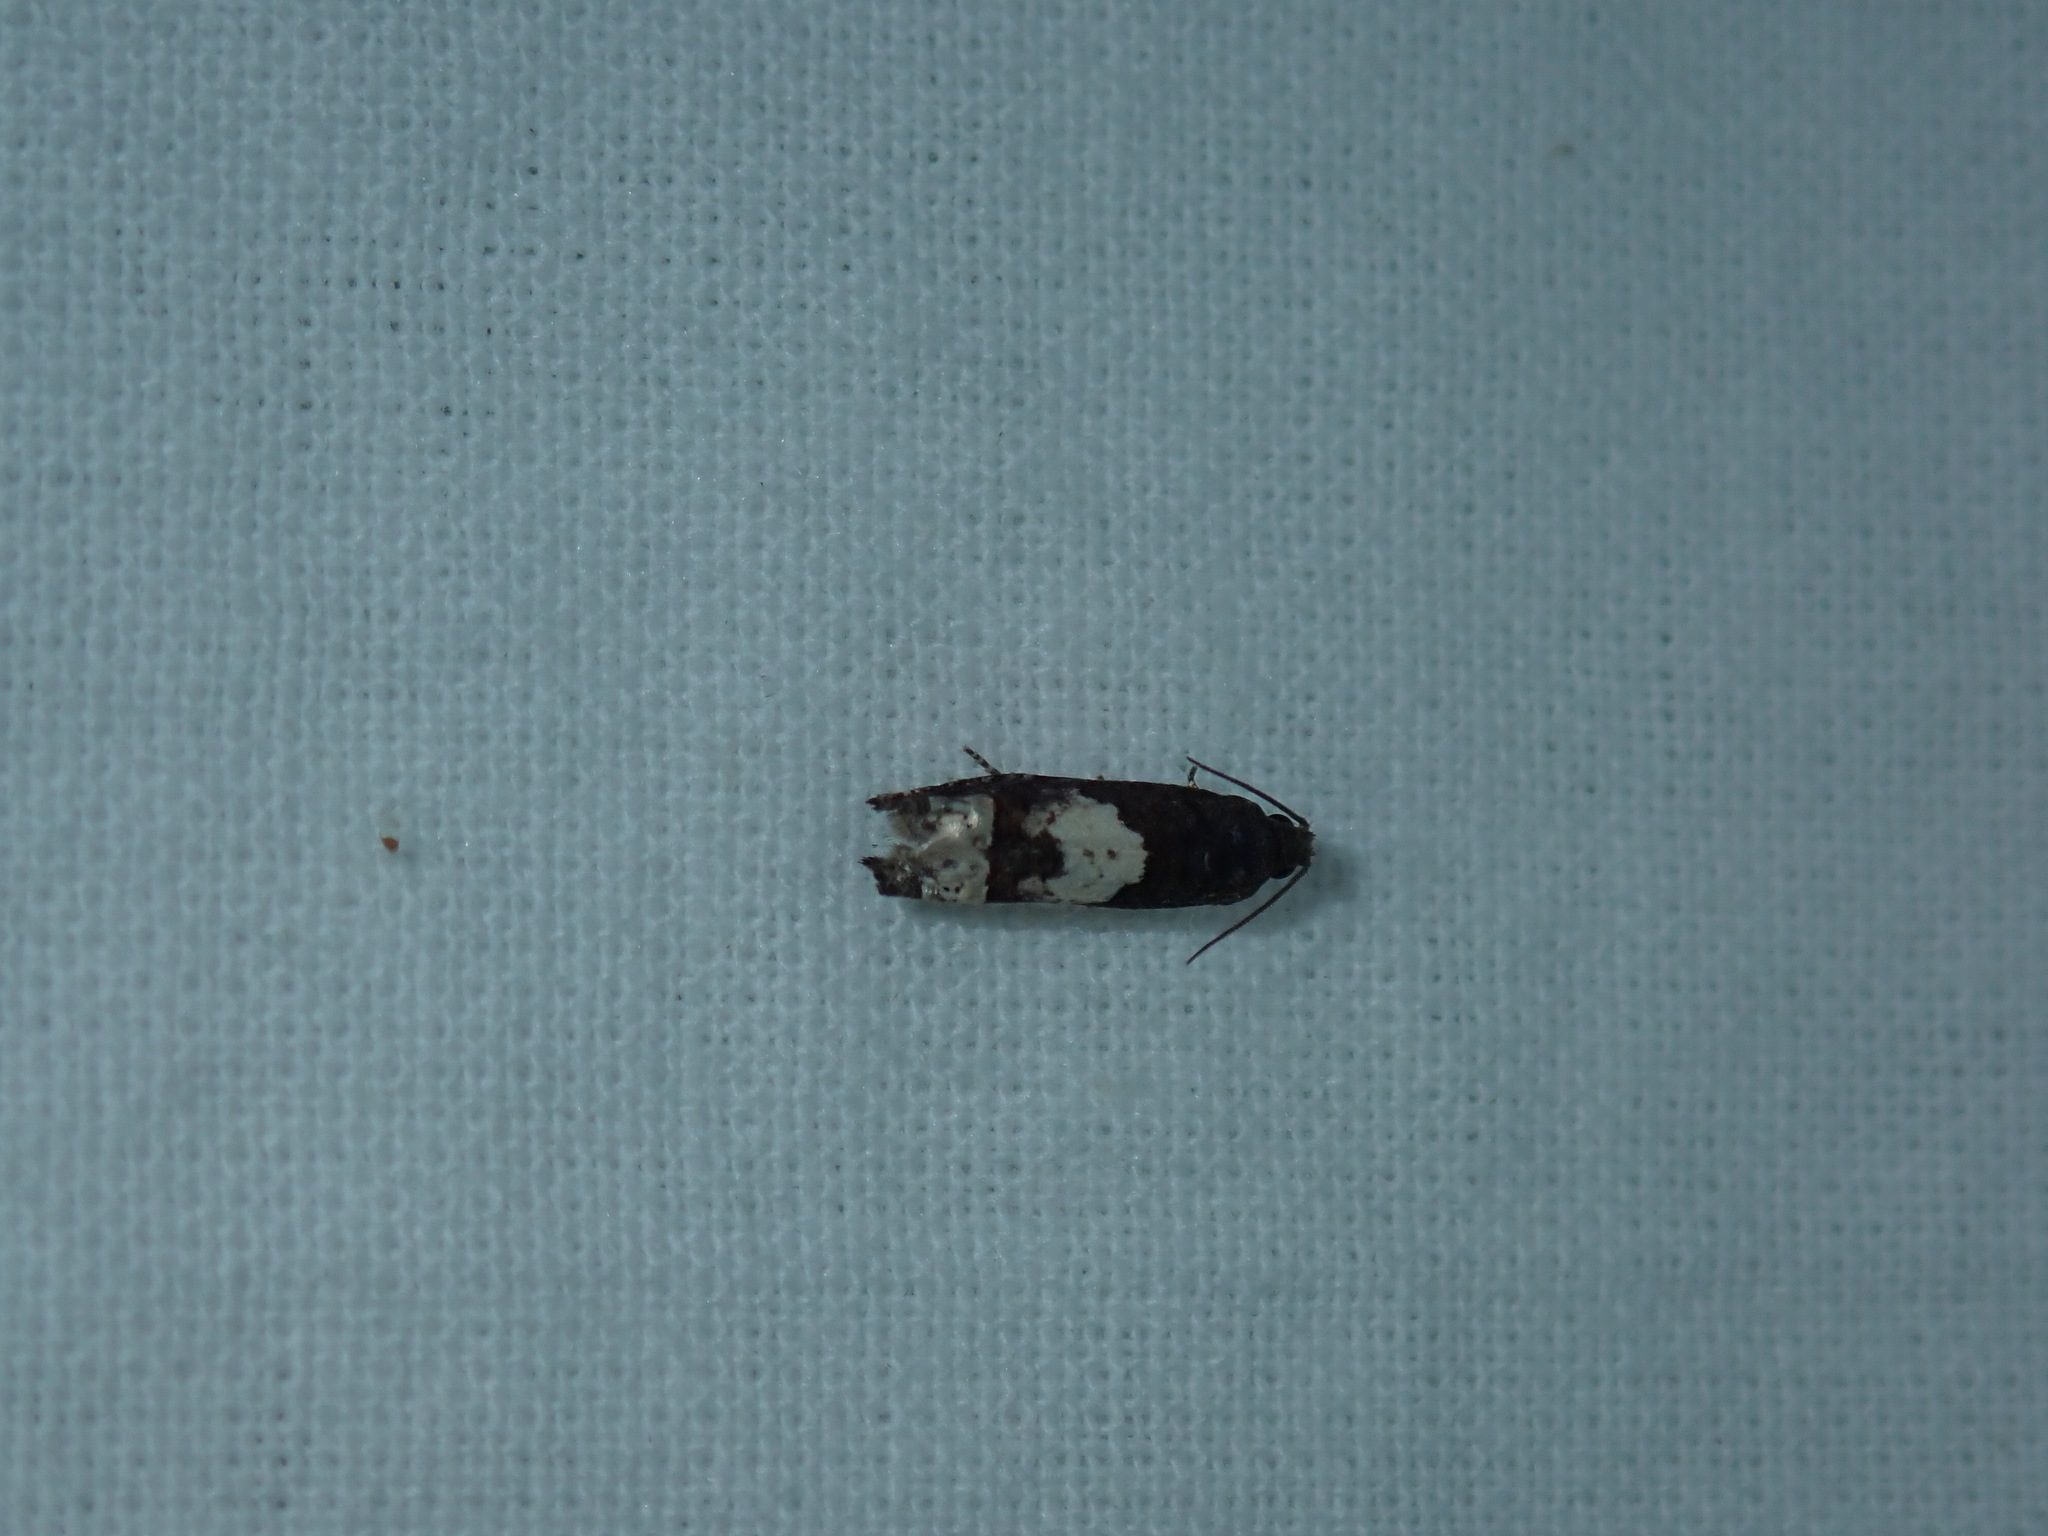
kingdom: Animalia
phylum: Arthropoda
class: Insecta
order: Lepidoptera
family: Tortricidae
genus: Epiblema
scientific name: Epiblema otiosana
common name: Bidens borer moth
